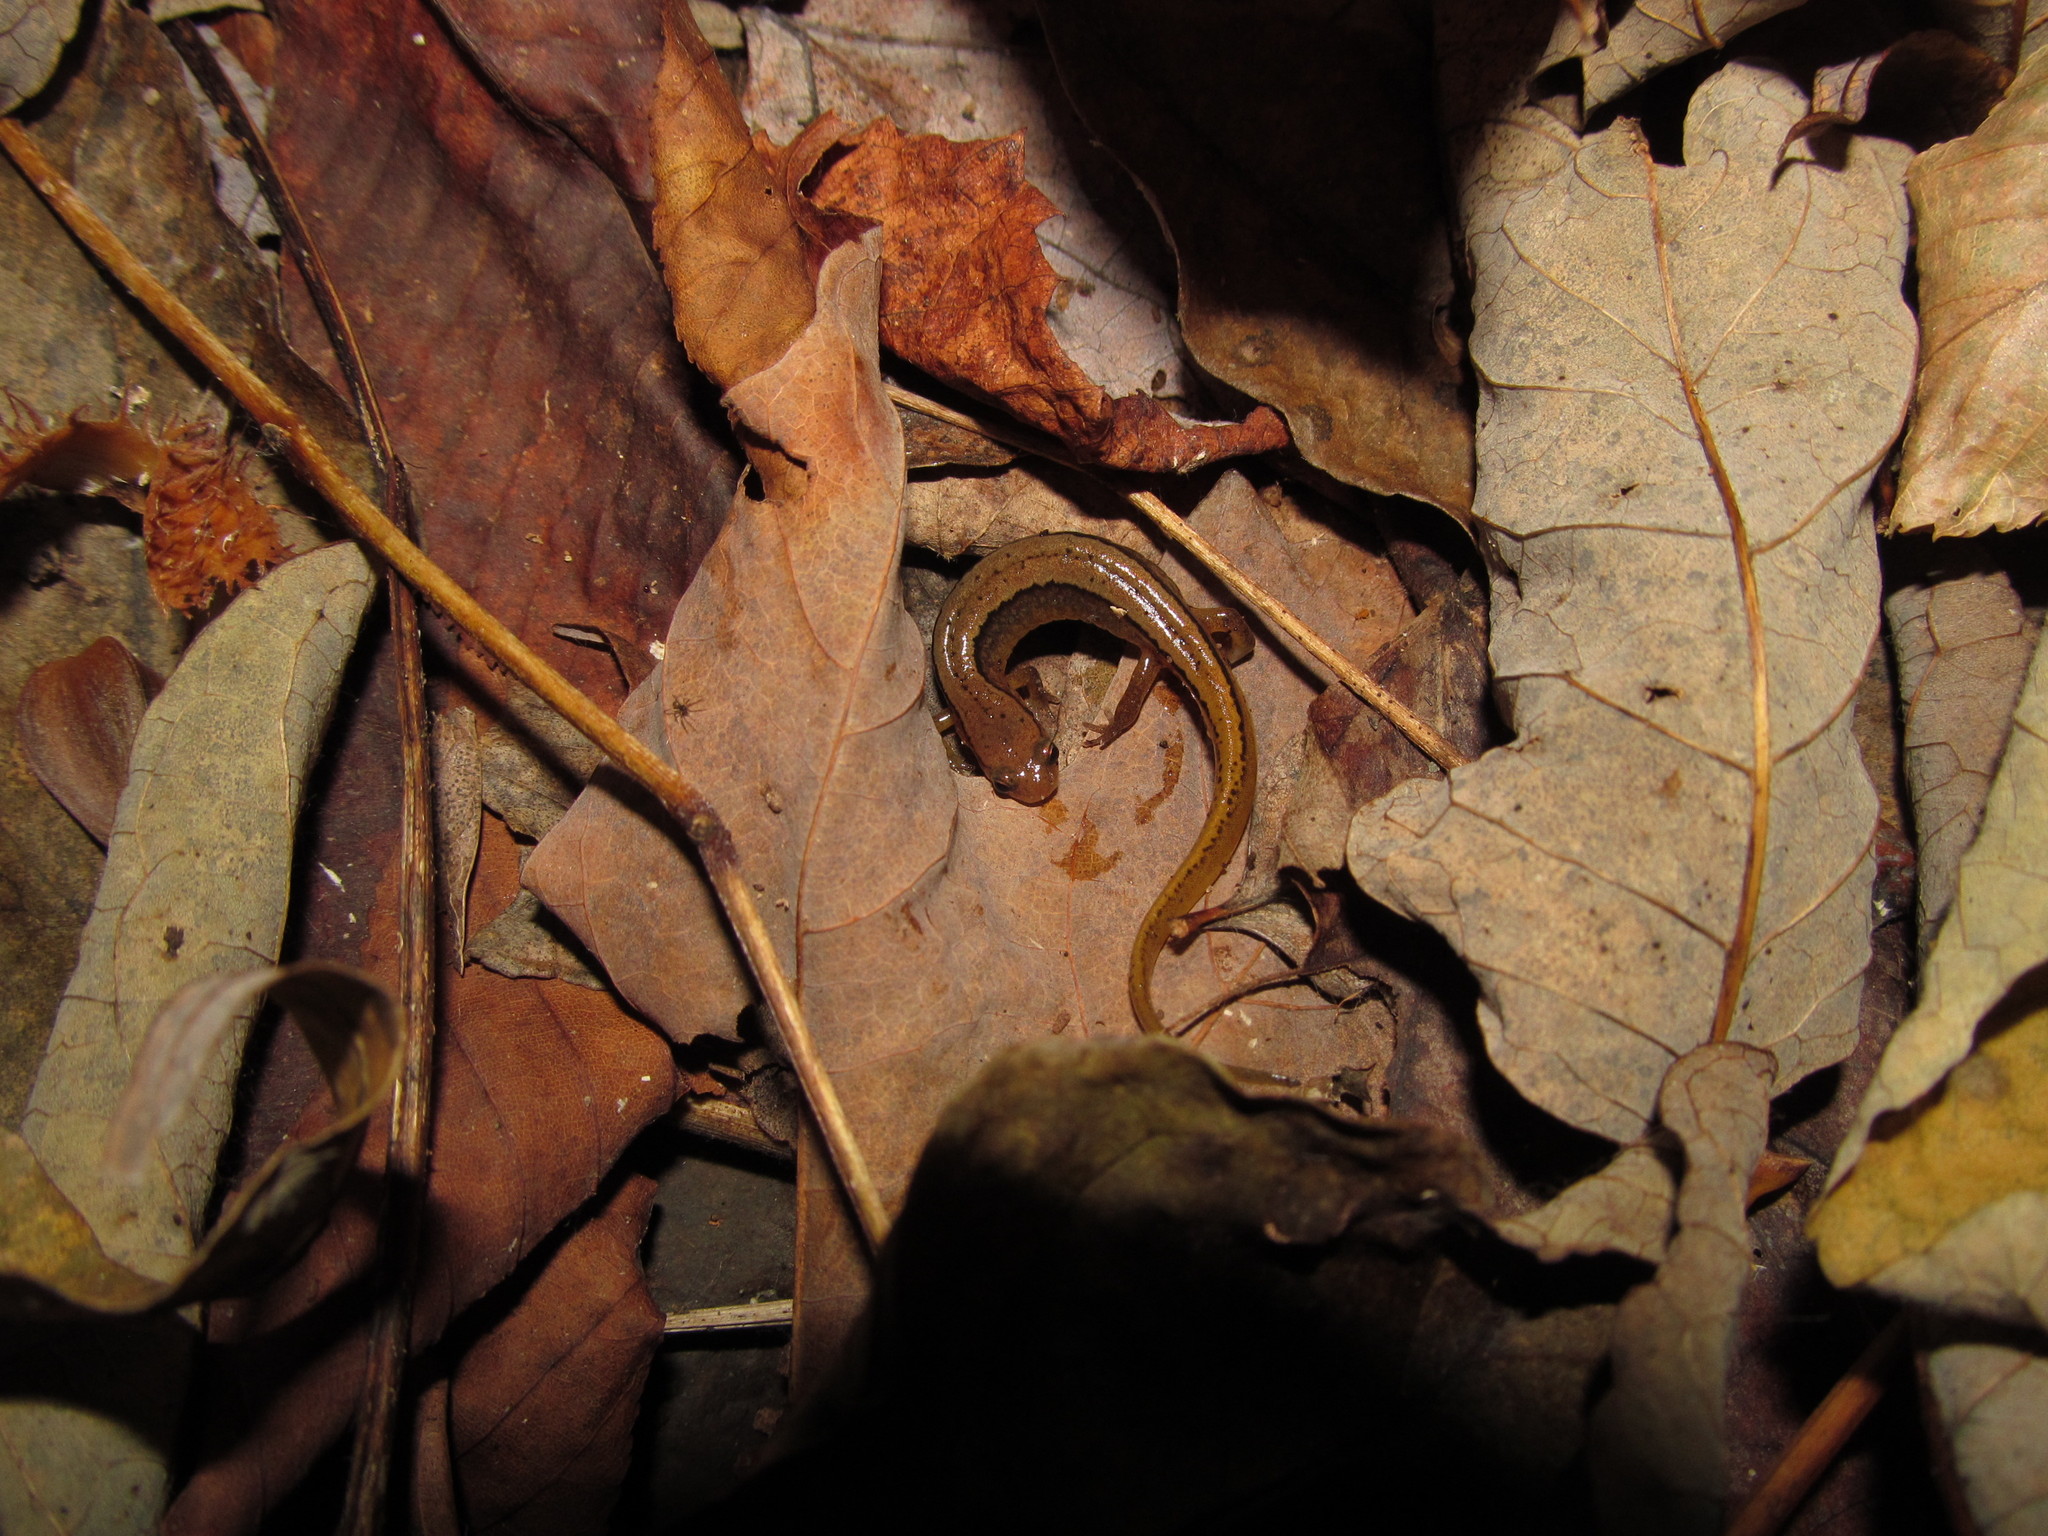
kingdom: Animalia
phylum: Chordata
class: Amphibia
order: Caudata
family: Plethodontidae
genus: Eurycea
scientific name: Eurycea cirrigera
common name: Southern two-lined salamander
